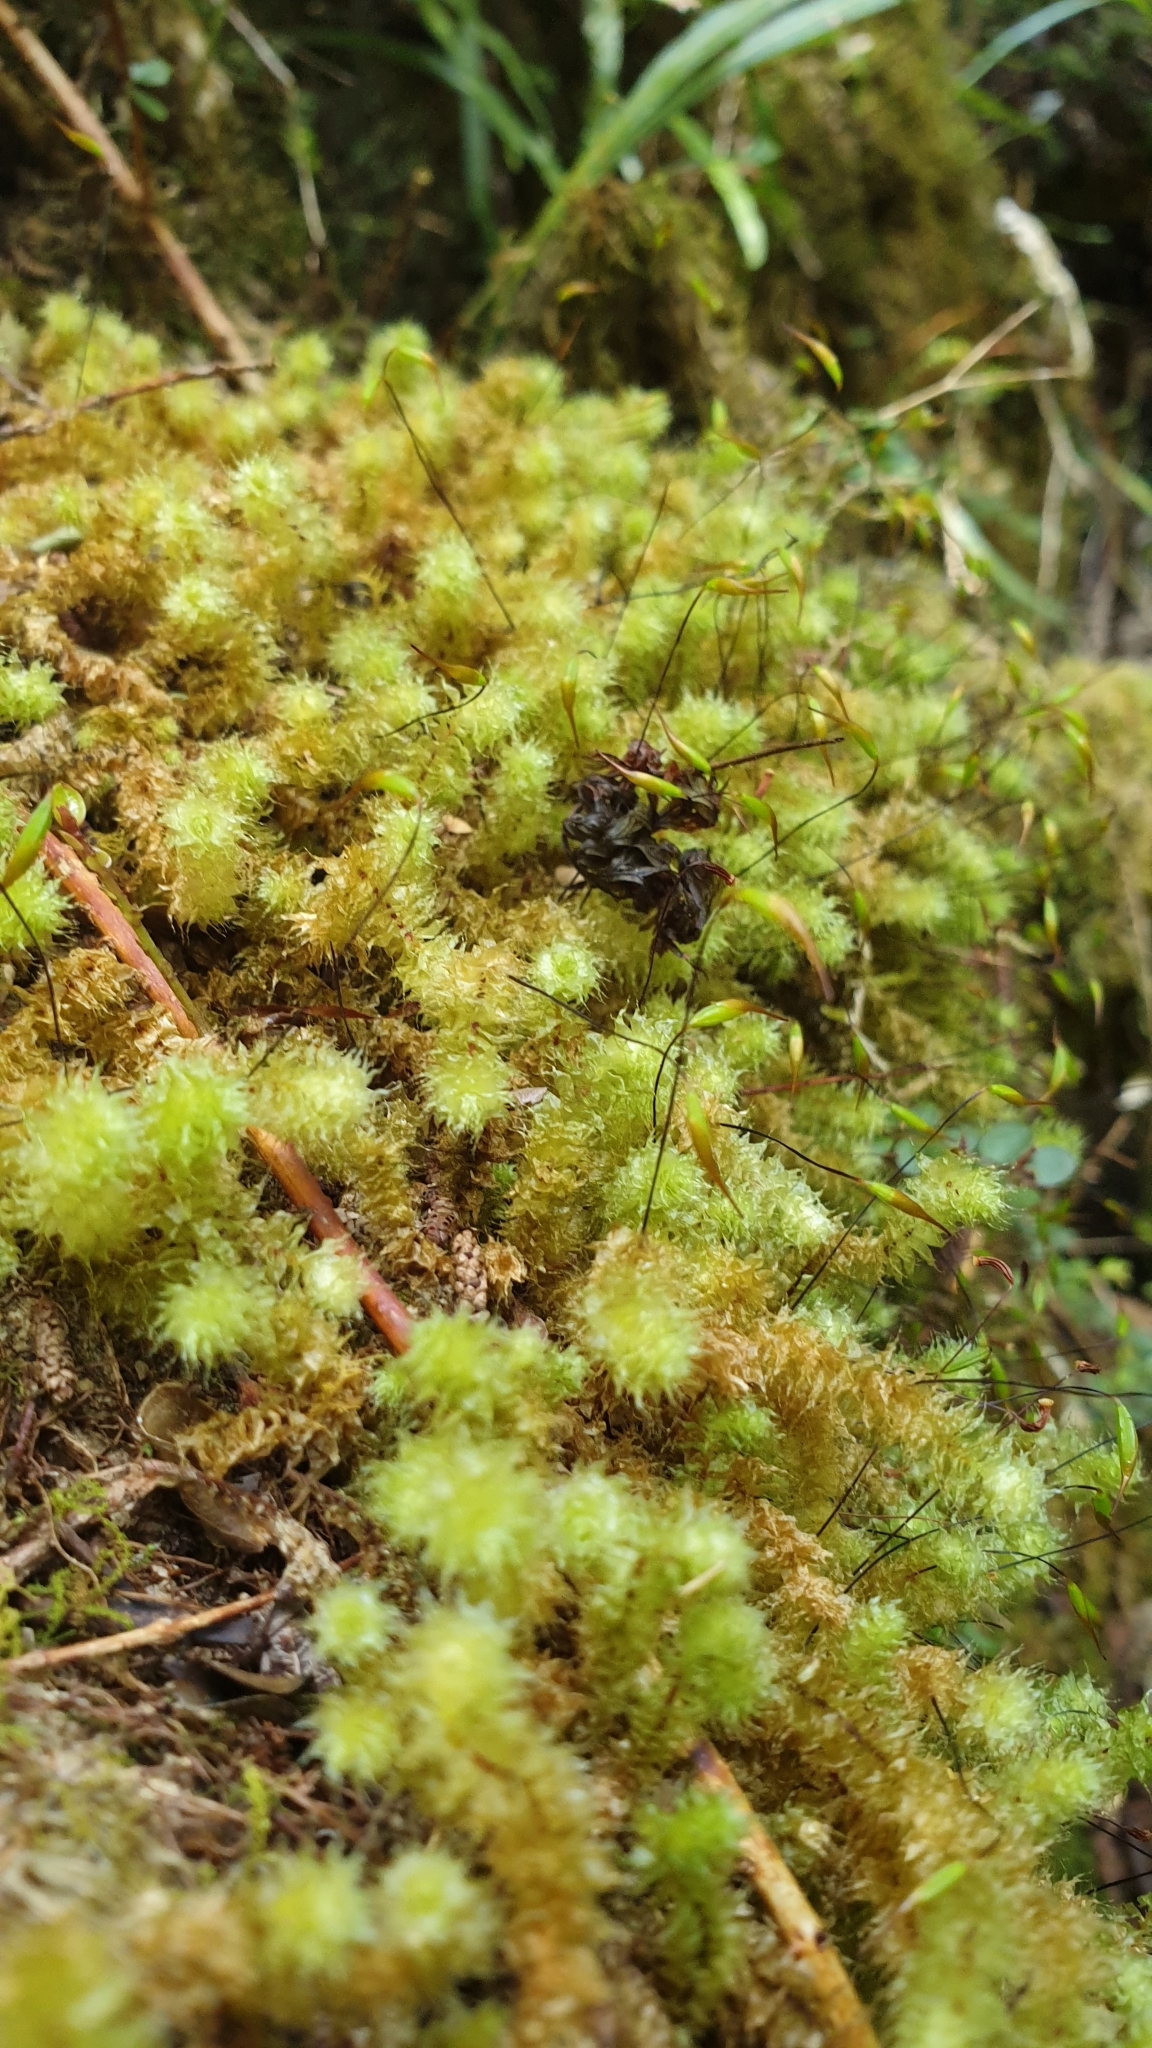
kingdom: Plantae
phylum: Bryophyta
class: Bryopsida
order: Ptychomniales
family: Ptychomniaceae
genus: Ptychomnion
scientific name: Ptychomnion aciculare
